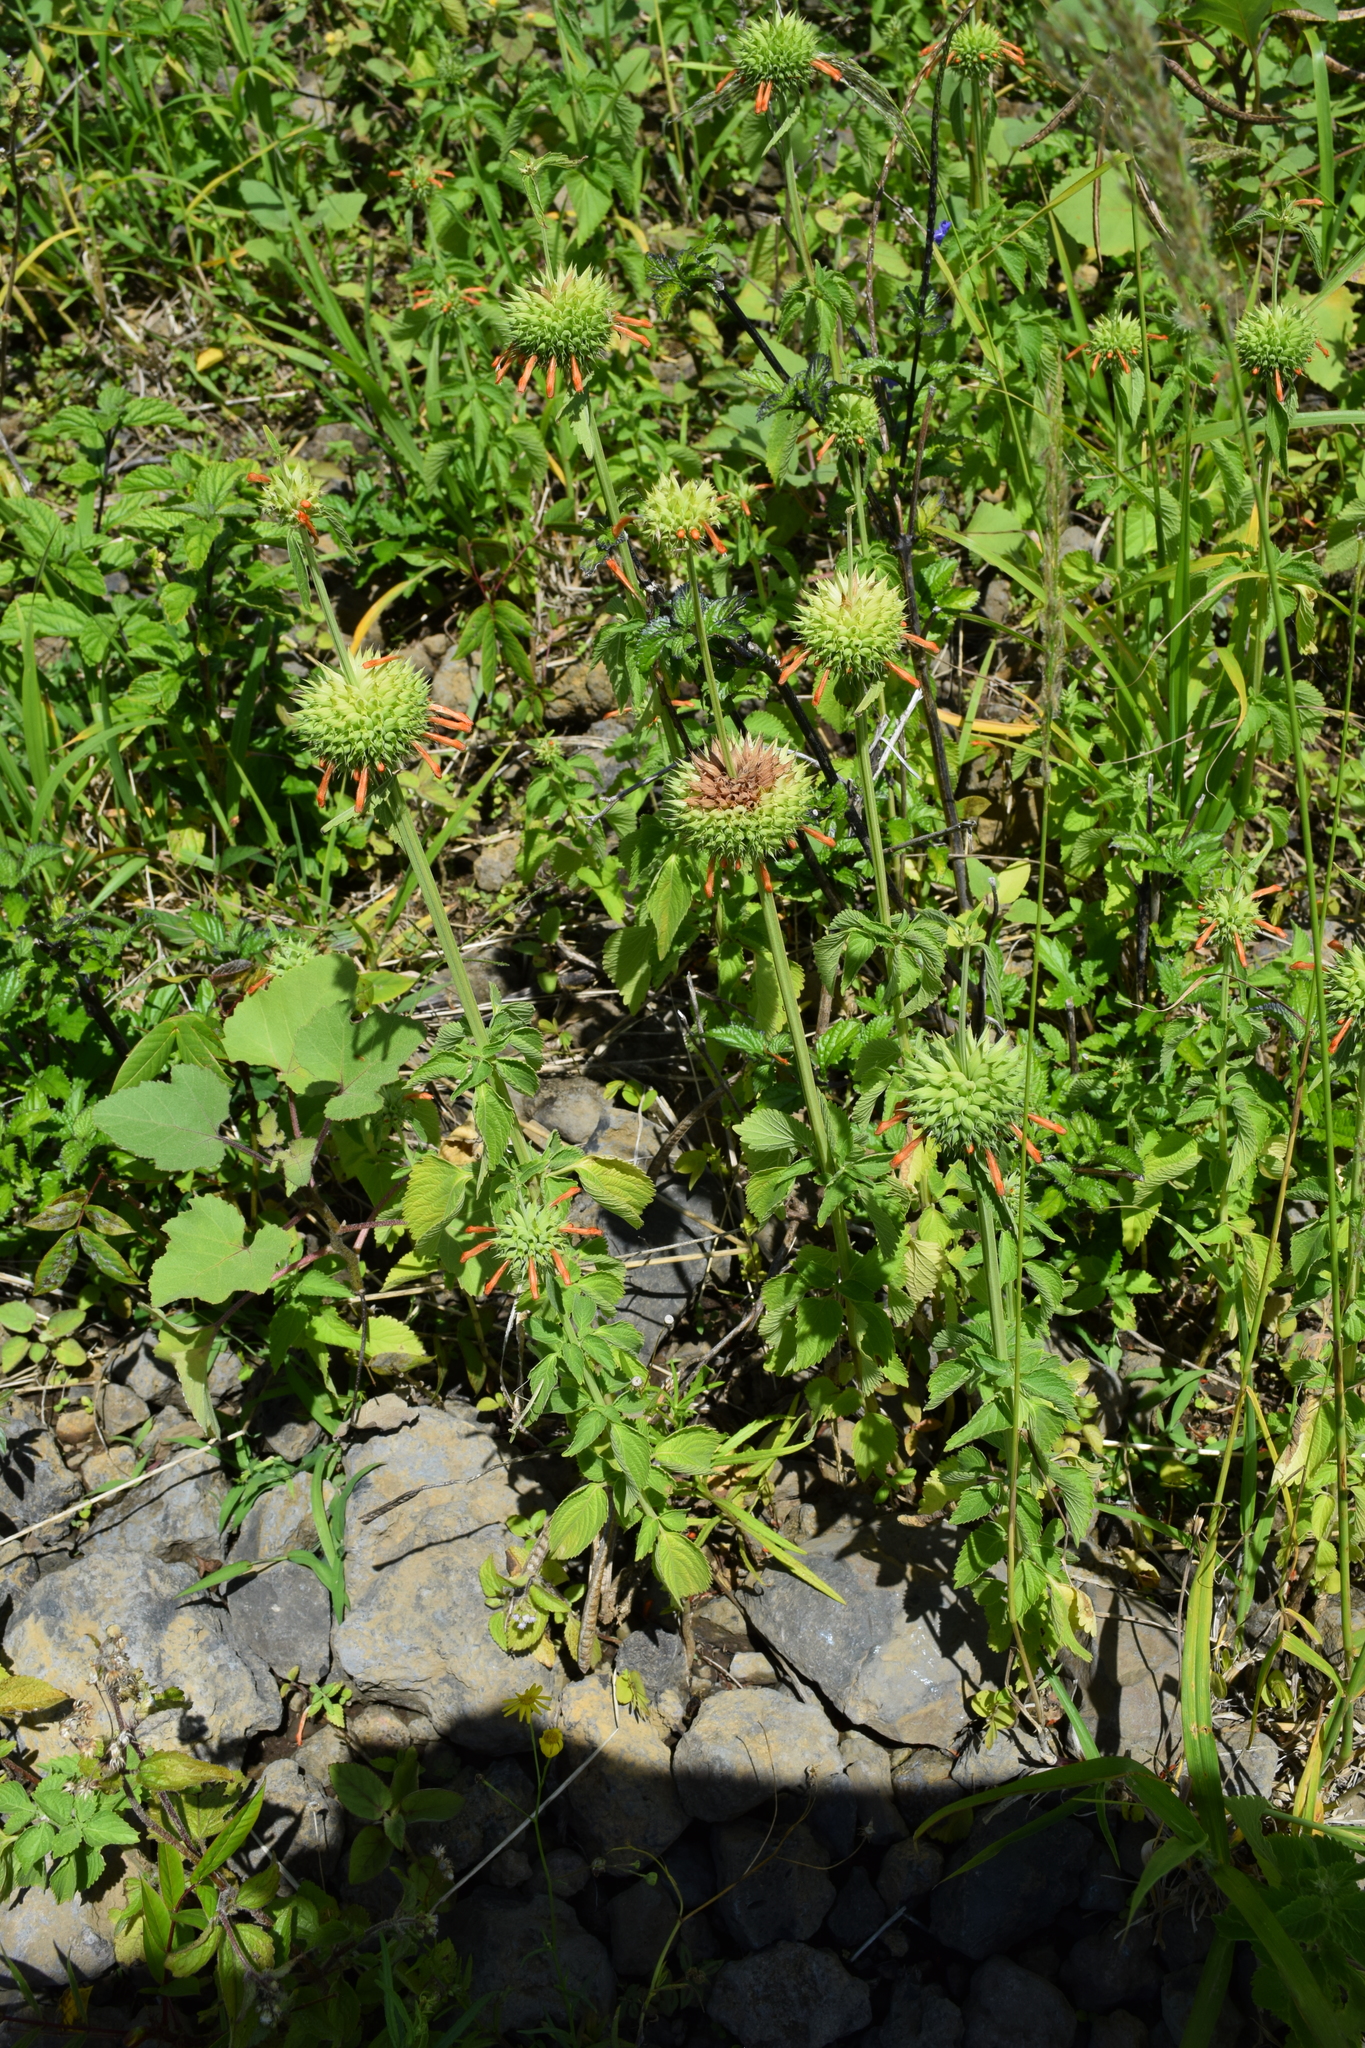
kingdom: Plantae
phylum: Tracheophyta
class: Magnoliopsida
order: Lamiales
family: Lamiaceae
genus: Leonotis
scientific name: Leonotis nepetifolia
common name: Christmas candlestick
